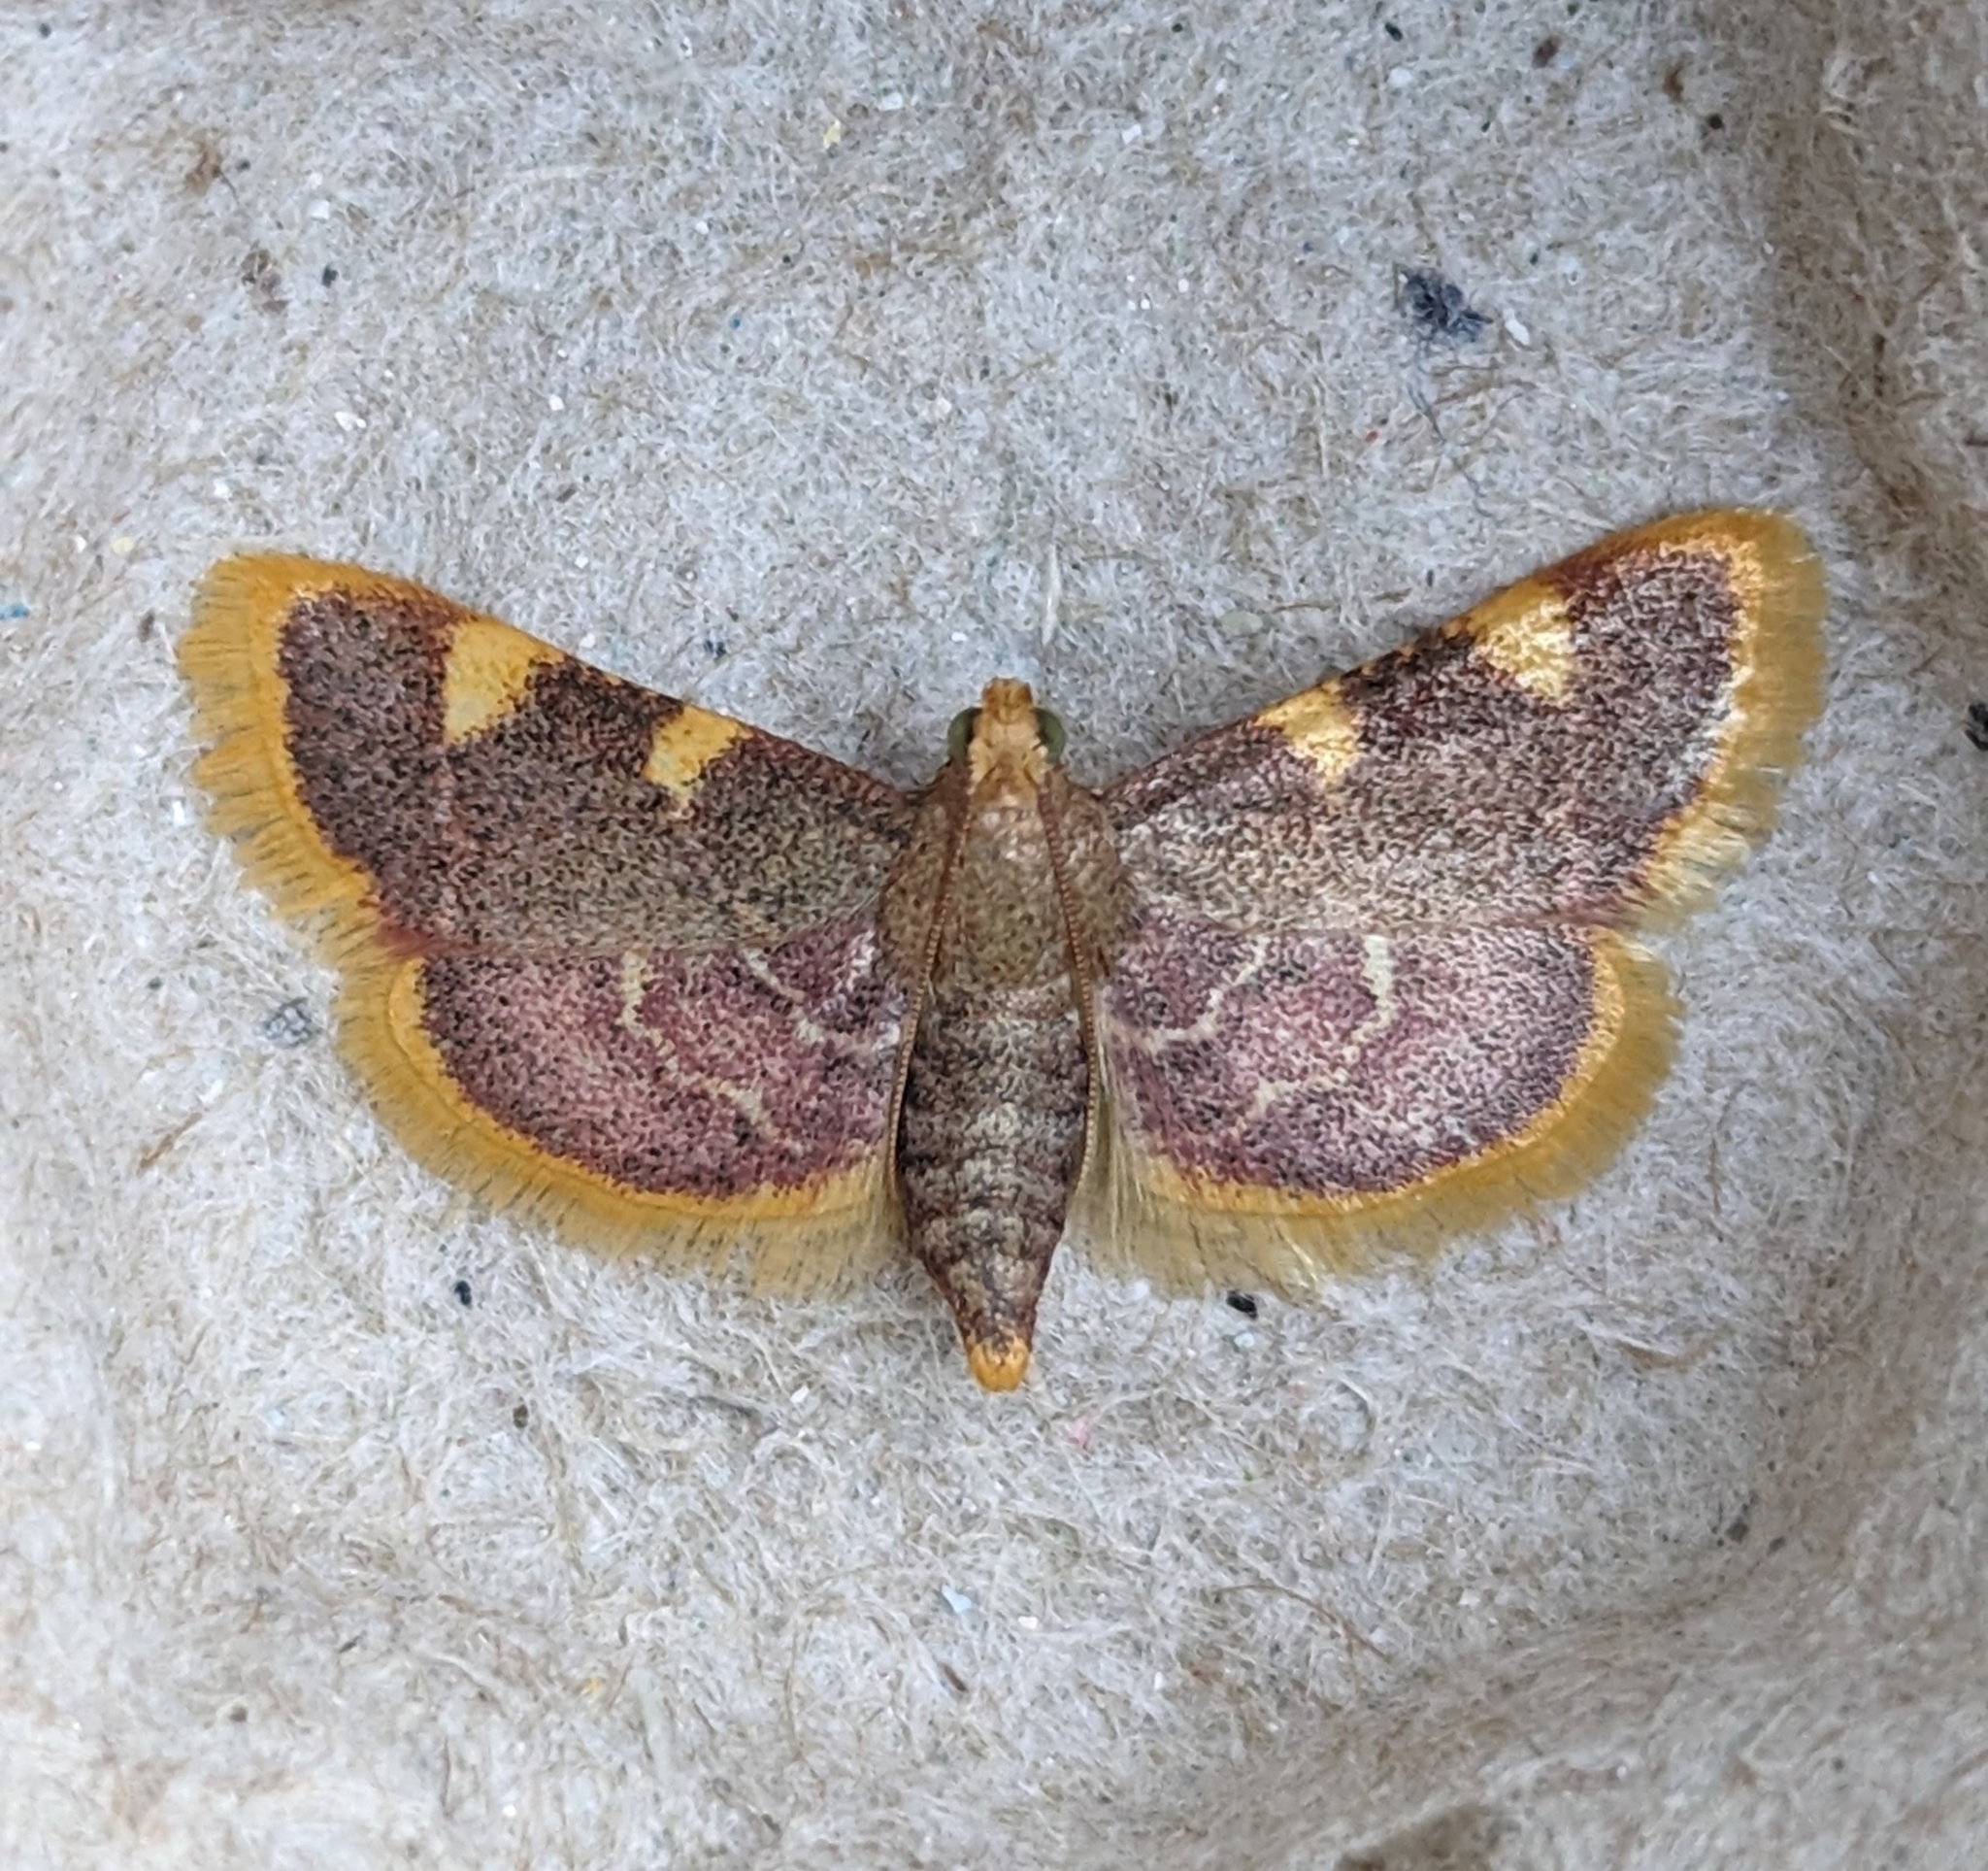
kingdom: Animalia
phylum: Arthropoda
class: Insecta
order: Lepidoptera
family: Pyralidae
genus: Hypsopygia
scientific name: Hypsopygia costalis
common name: Gold triangle
